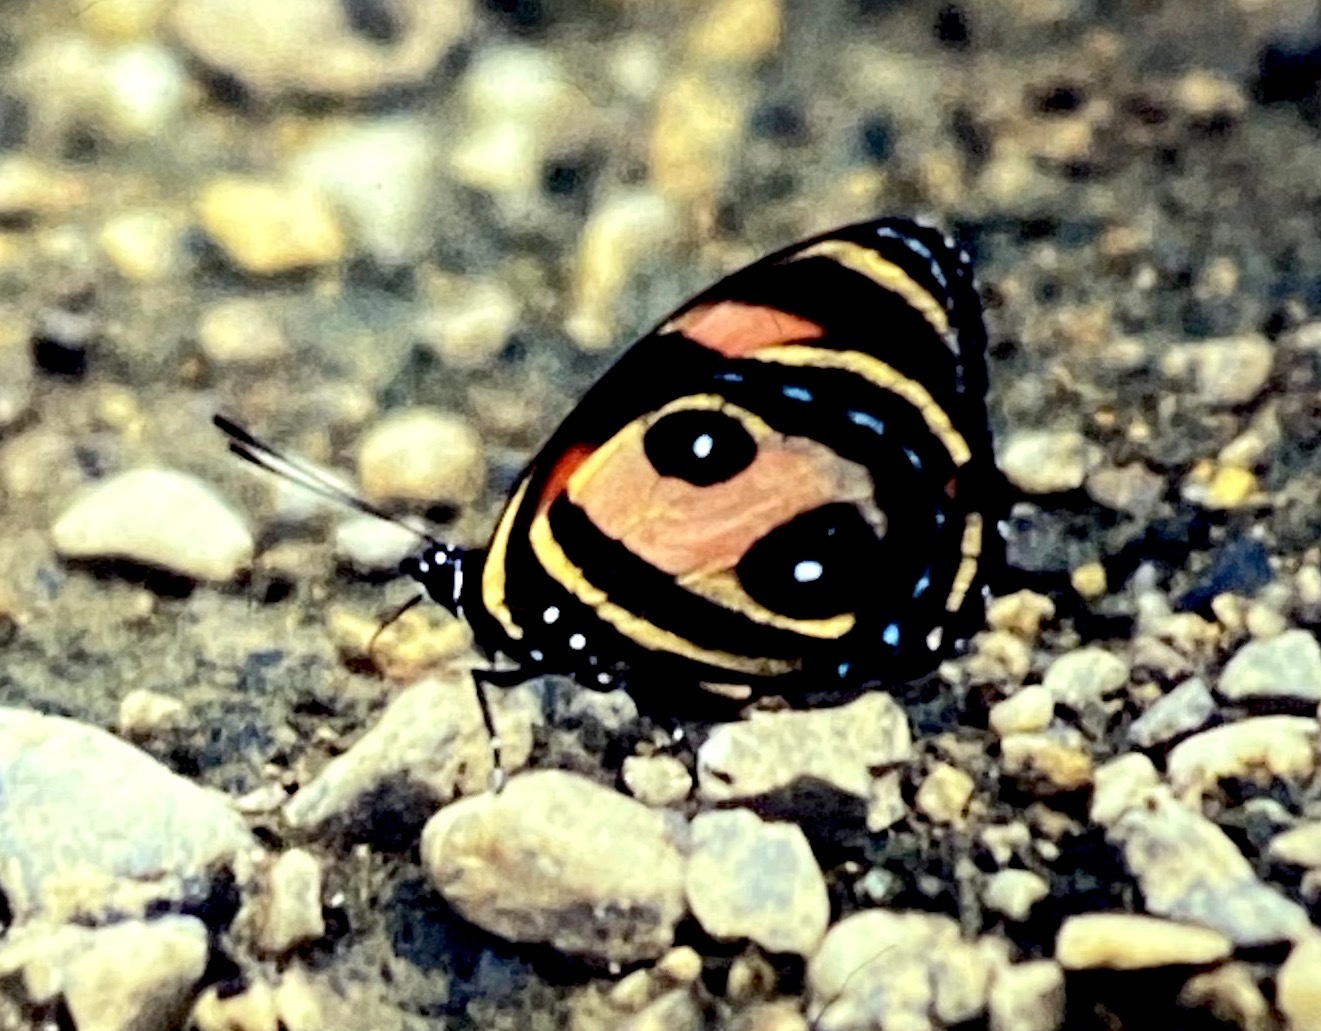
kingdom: Animalia
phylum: Arthropoda
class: Insecta
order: Lepidoptera
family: Nymphalidae
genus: Catagramma
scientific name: Catagramma Callicore pitheas
